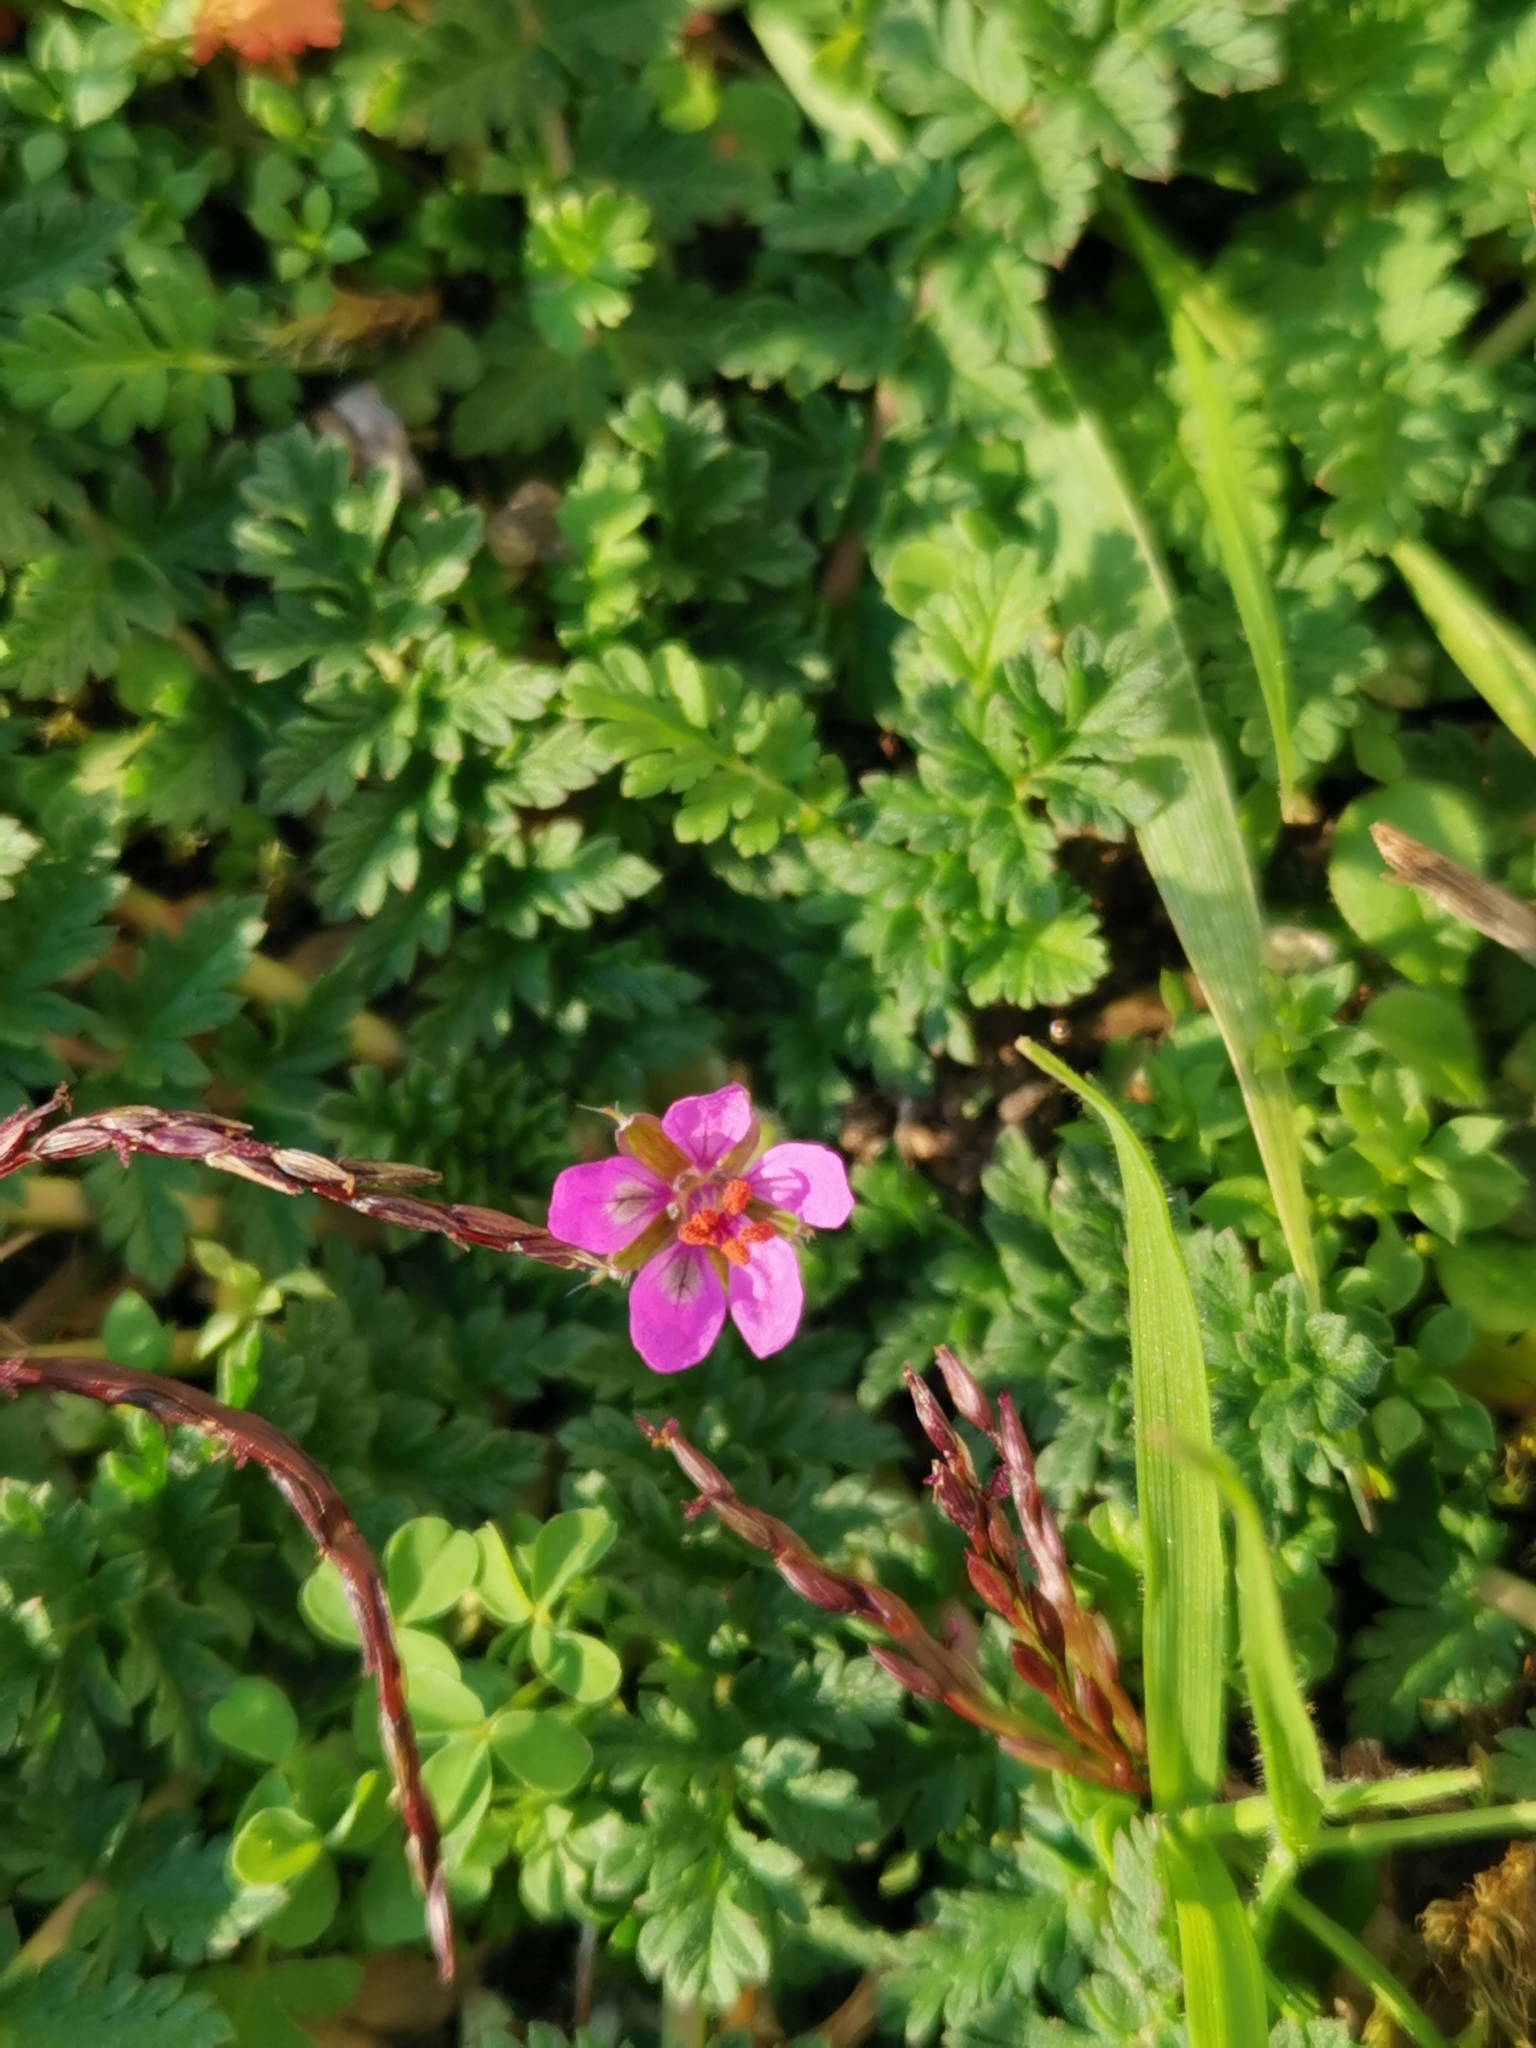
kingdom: Plantae
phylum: Tracheophyta
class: Magnoliopsida
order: Geraniales
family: Geraniaceae
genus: Erodium
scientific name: Erodium cicutarium
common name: Common stork's-bill
